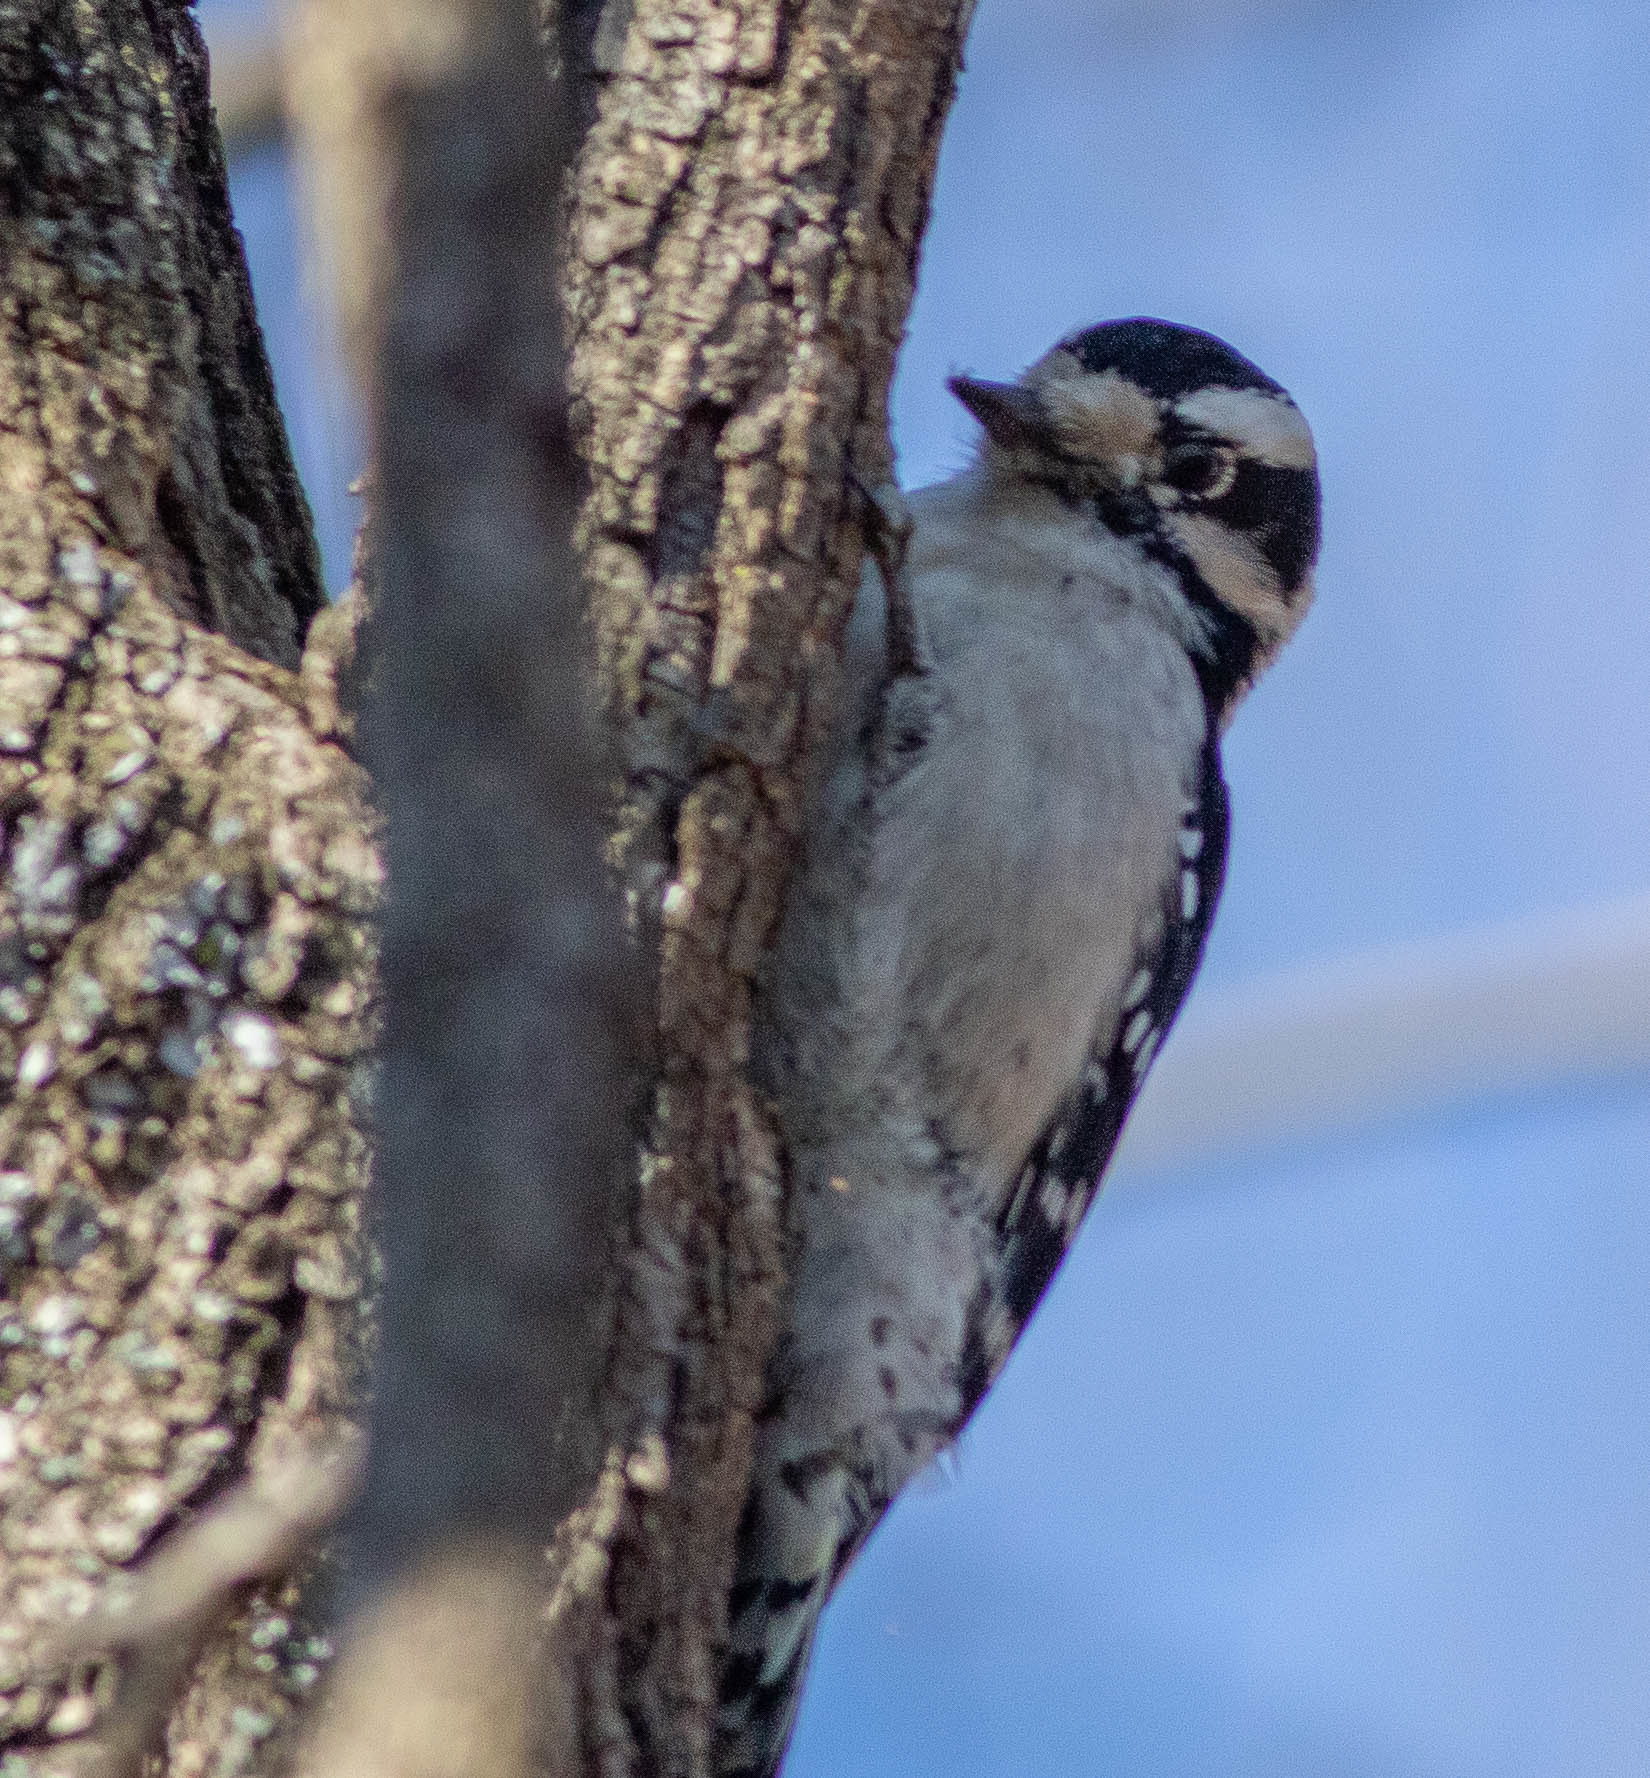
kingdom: Animalia
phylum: Chordata
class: Aves
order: Piciformes
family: Picidae
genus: Dryobates
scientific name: Dryobates pubescens
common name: Downy woodpecker
